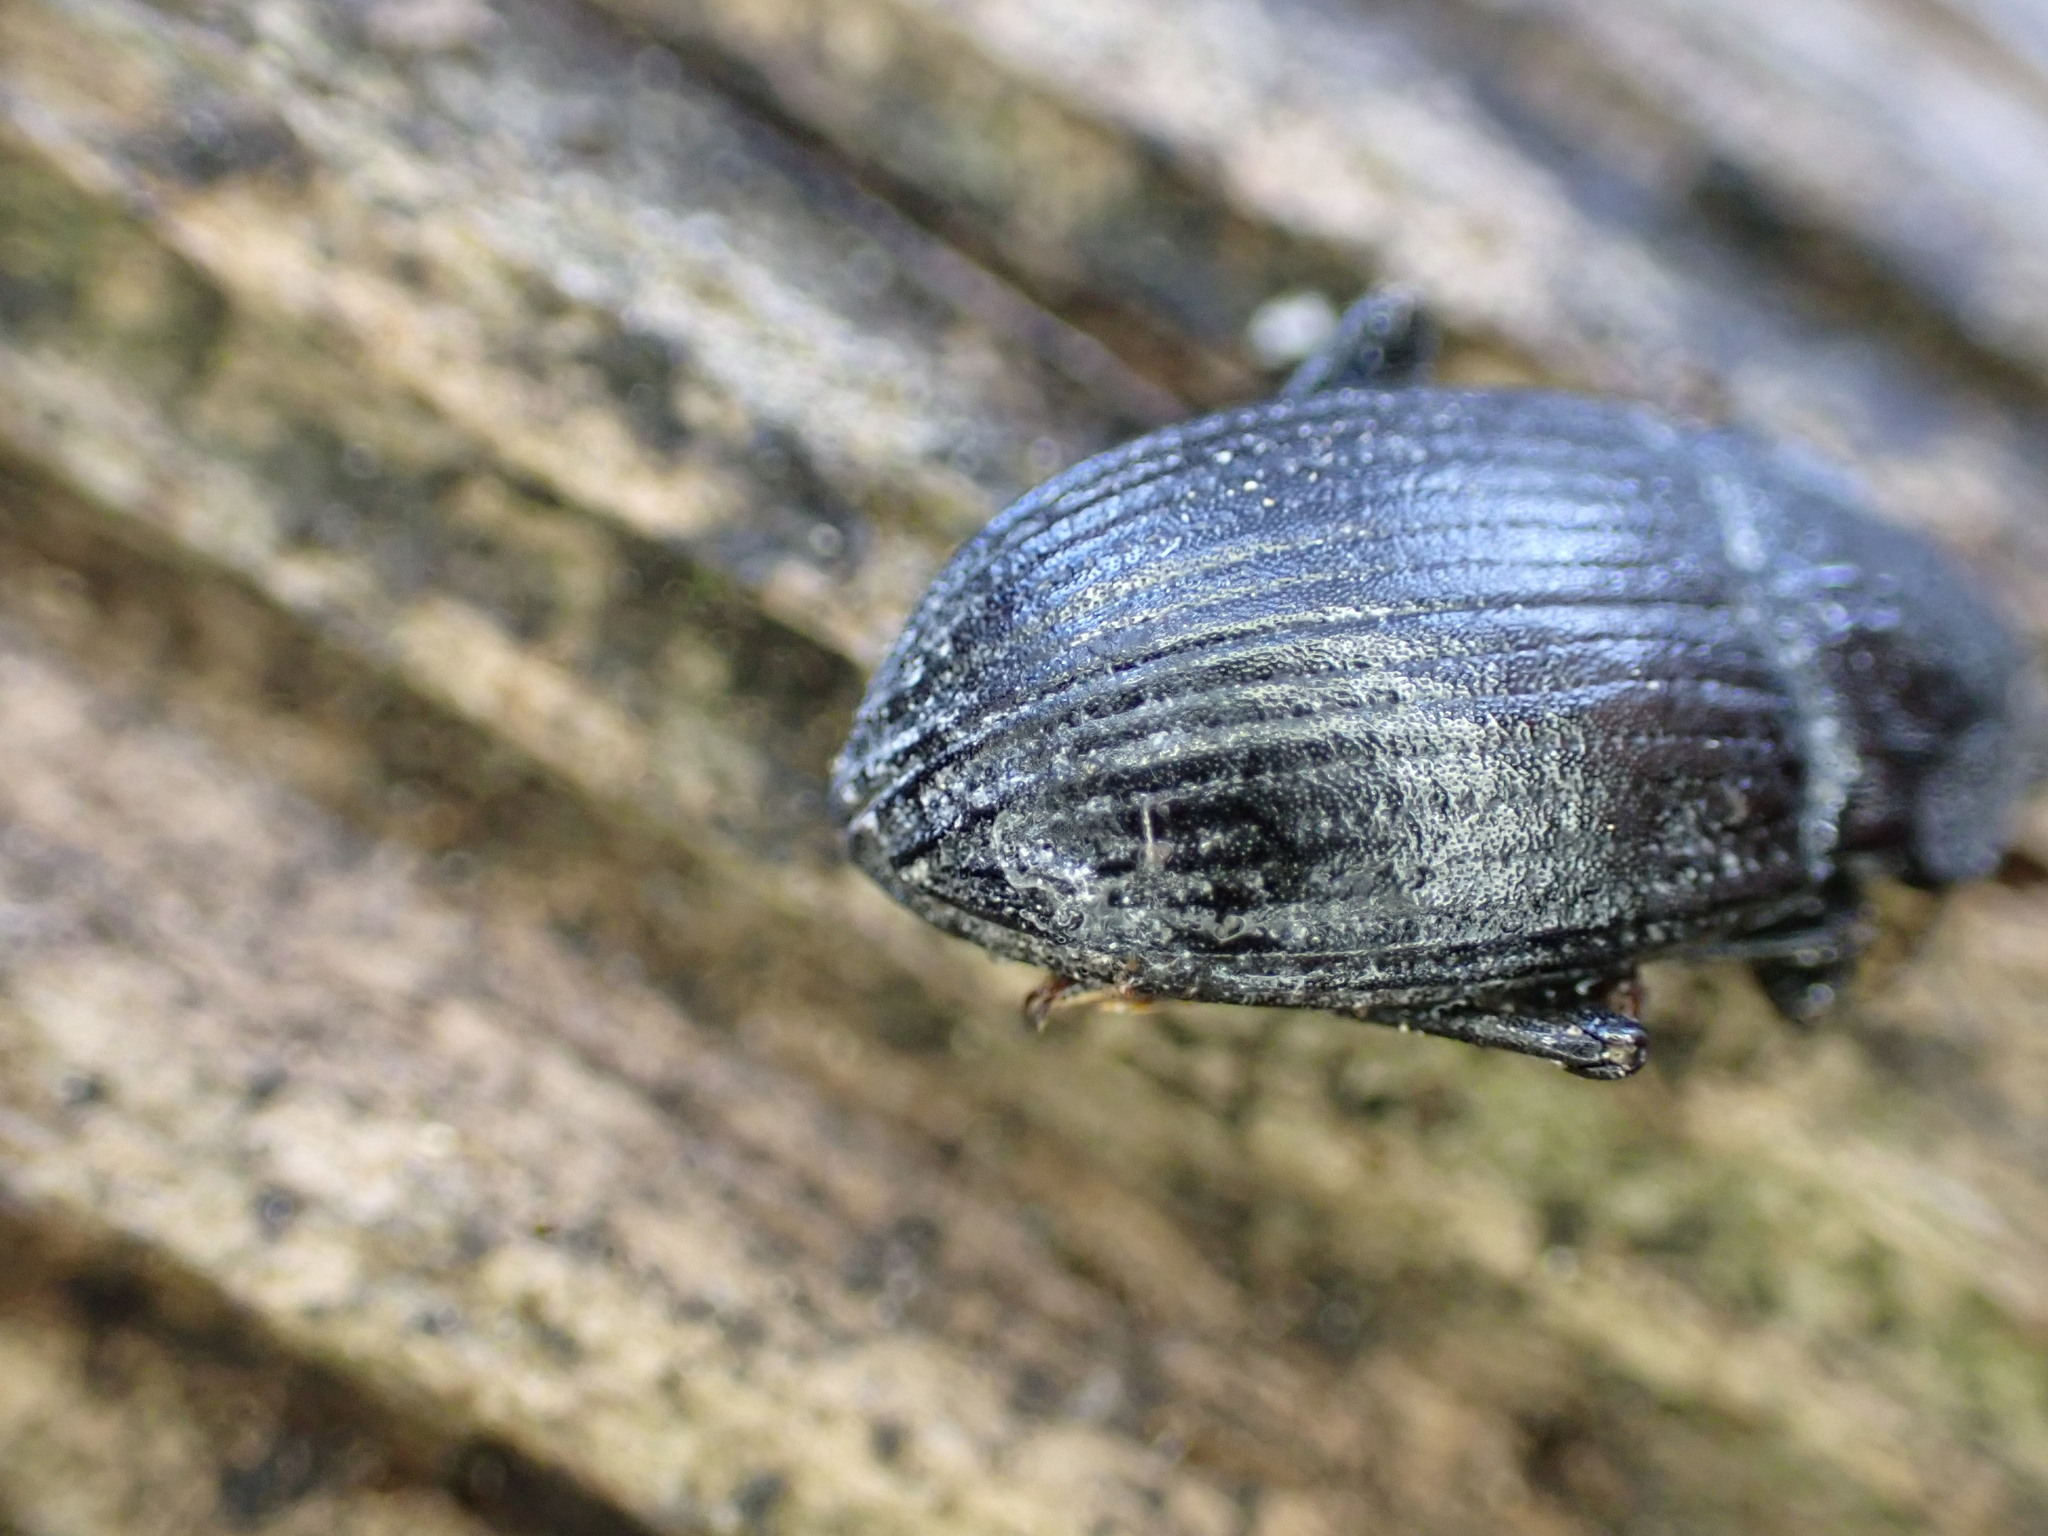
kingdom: Animalia
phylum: Arthropoda
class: Insecta
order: Coleoptera
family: Tenebrionidae
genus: Dendarus
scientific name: Dendarus coarcticollis
